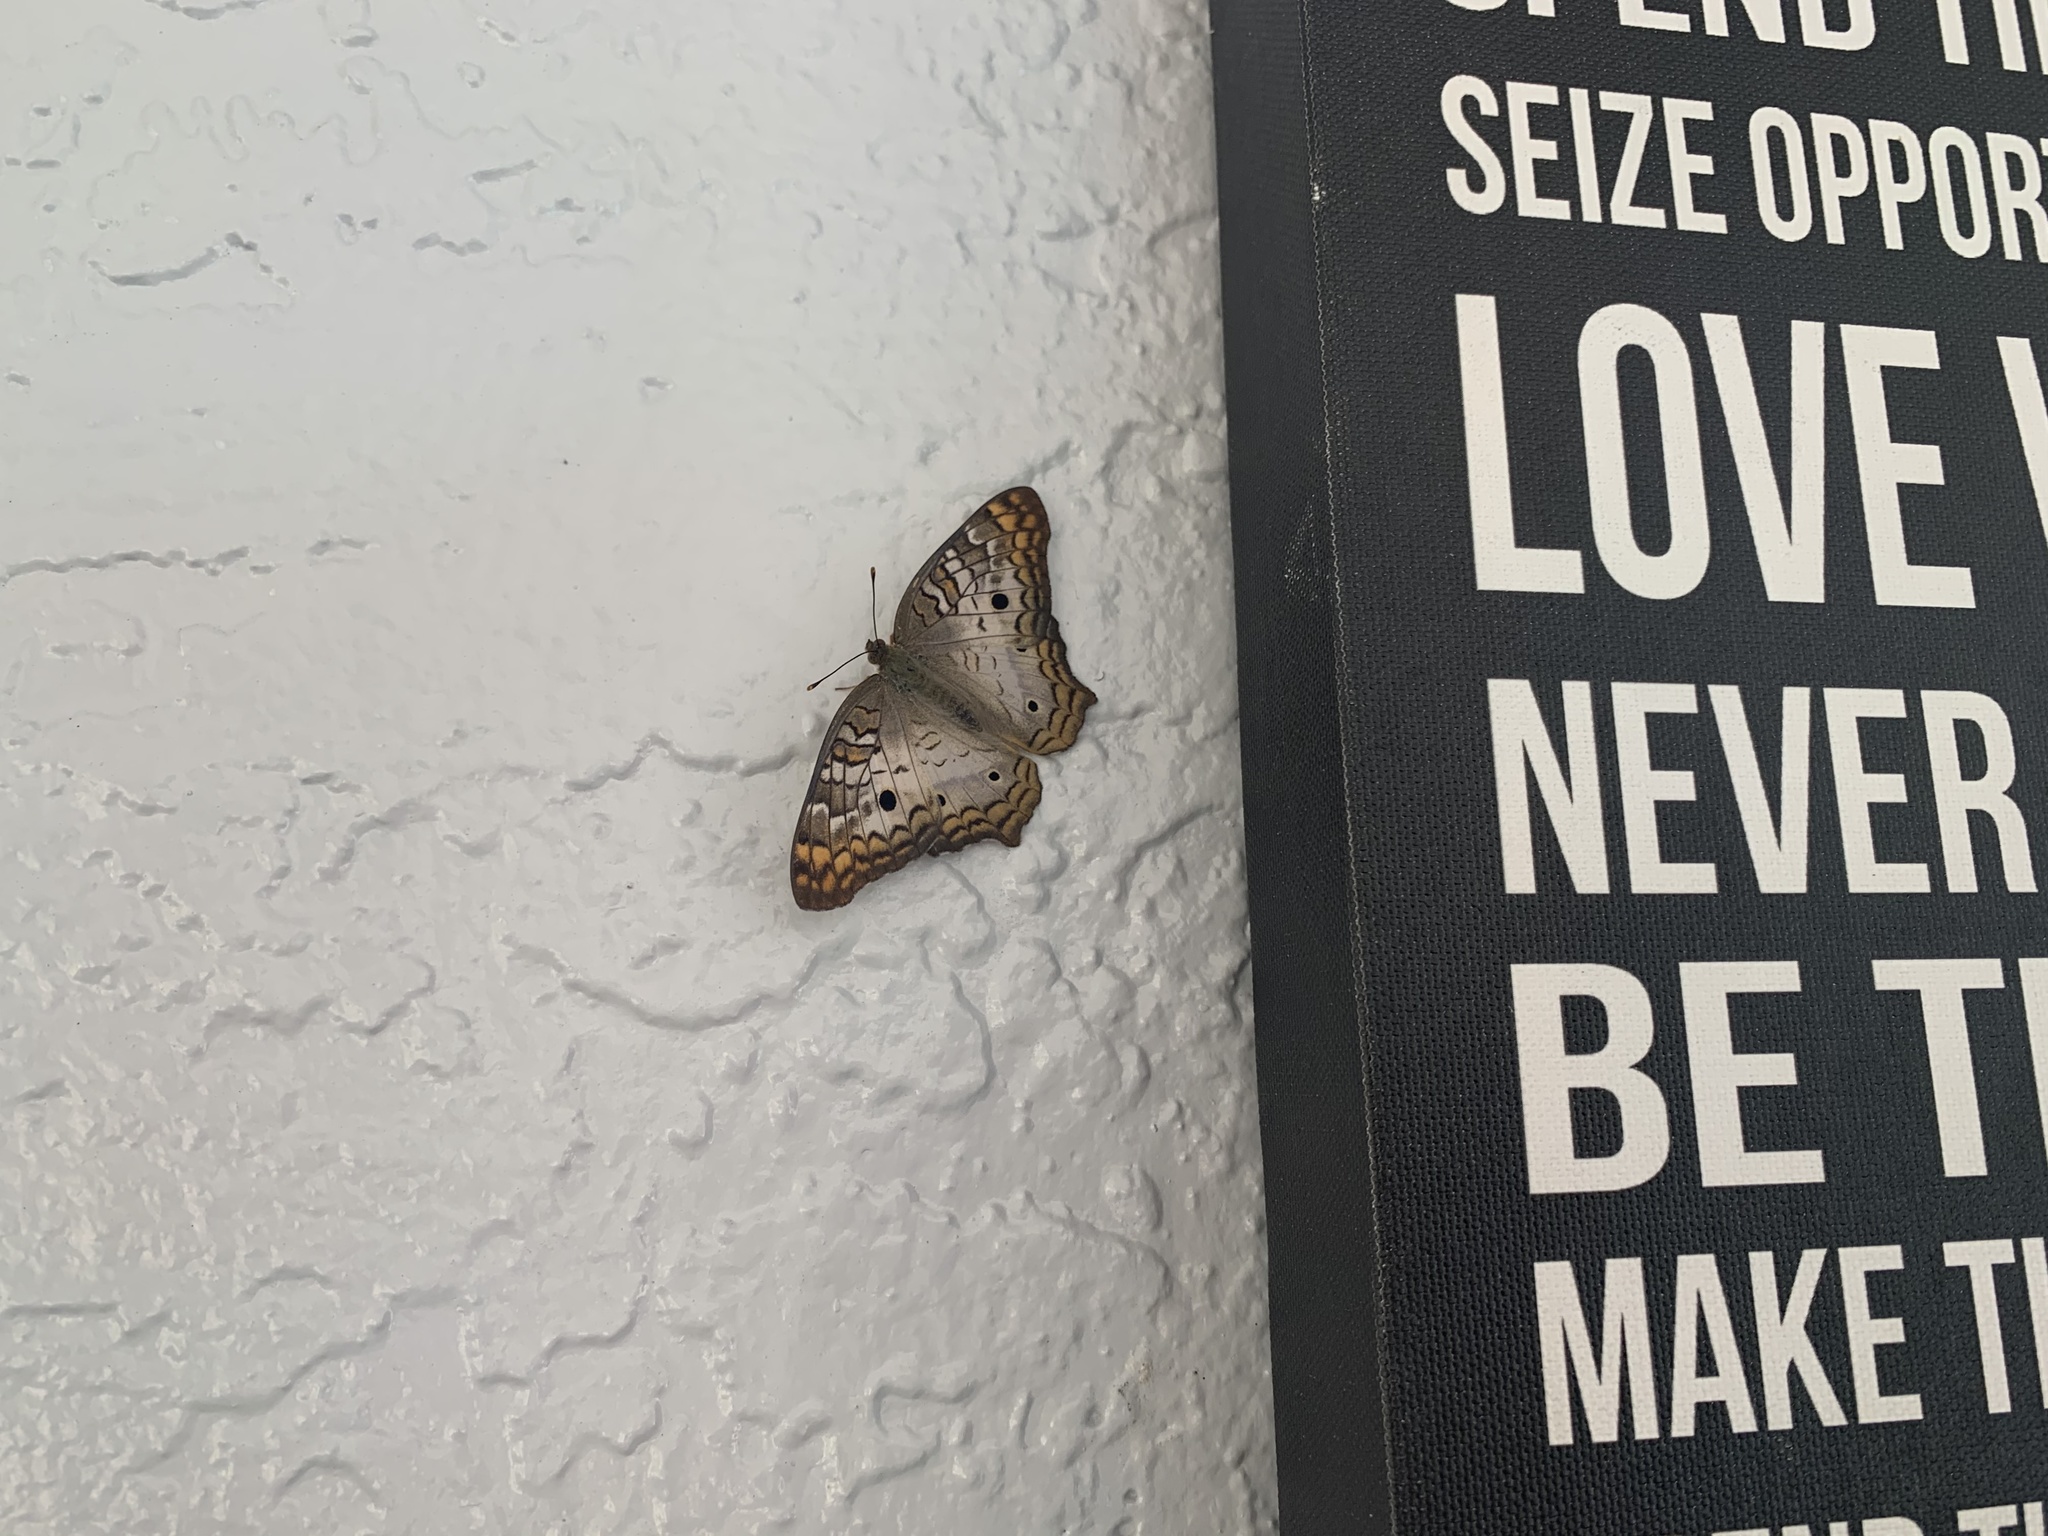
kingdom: Animalia
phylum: Arthropoda
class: Insecta
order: Lepidoptera
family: Nymphalidae
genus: Anartia
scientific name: Anartia jatrophae
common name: White peacock
